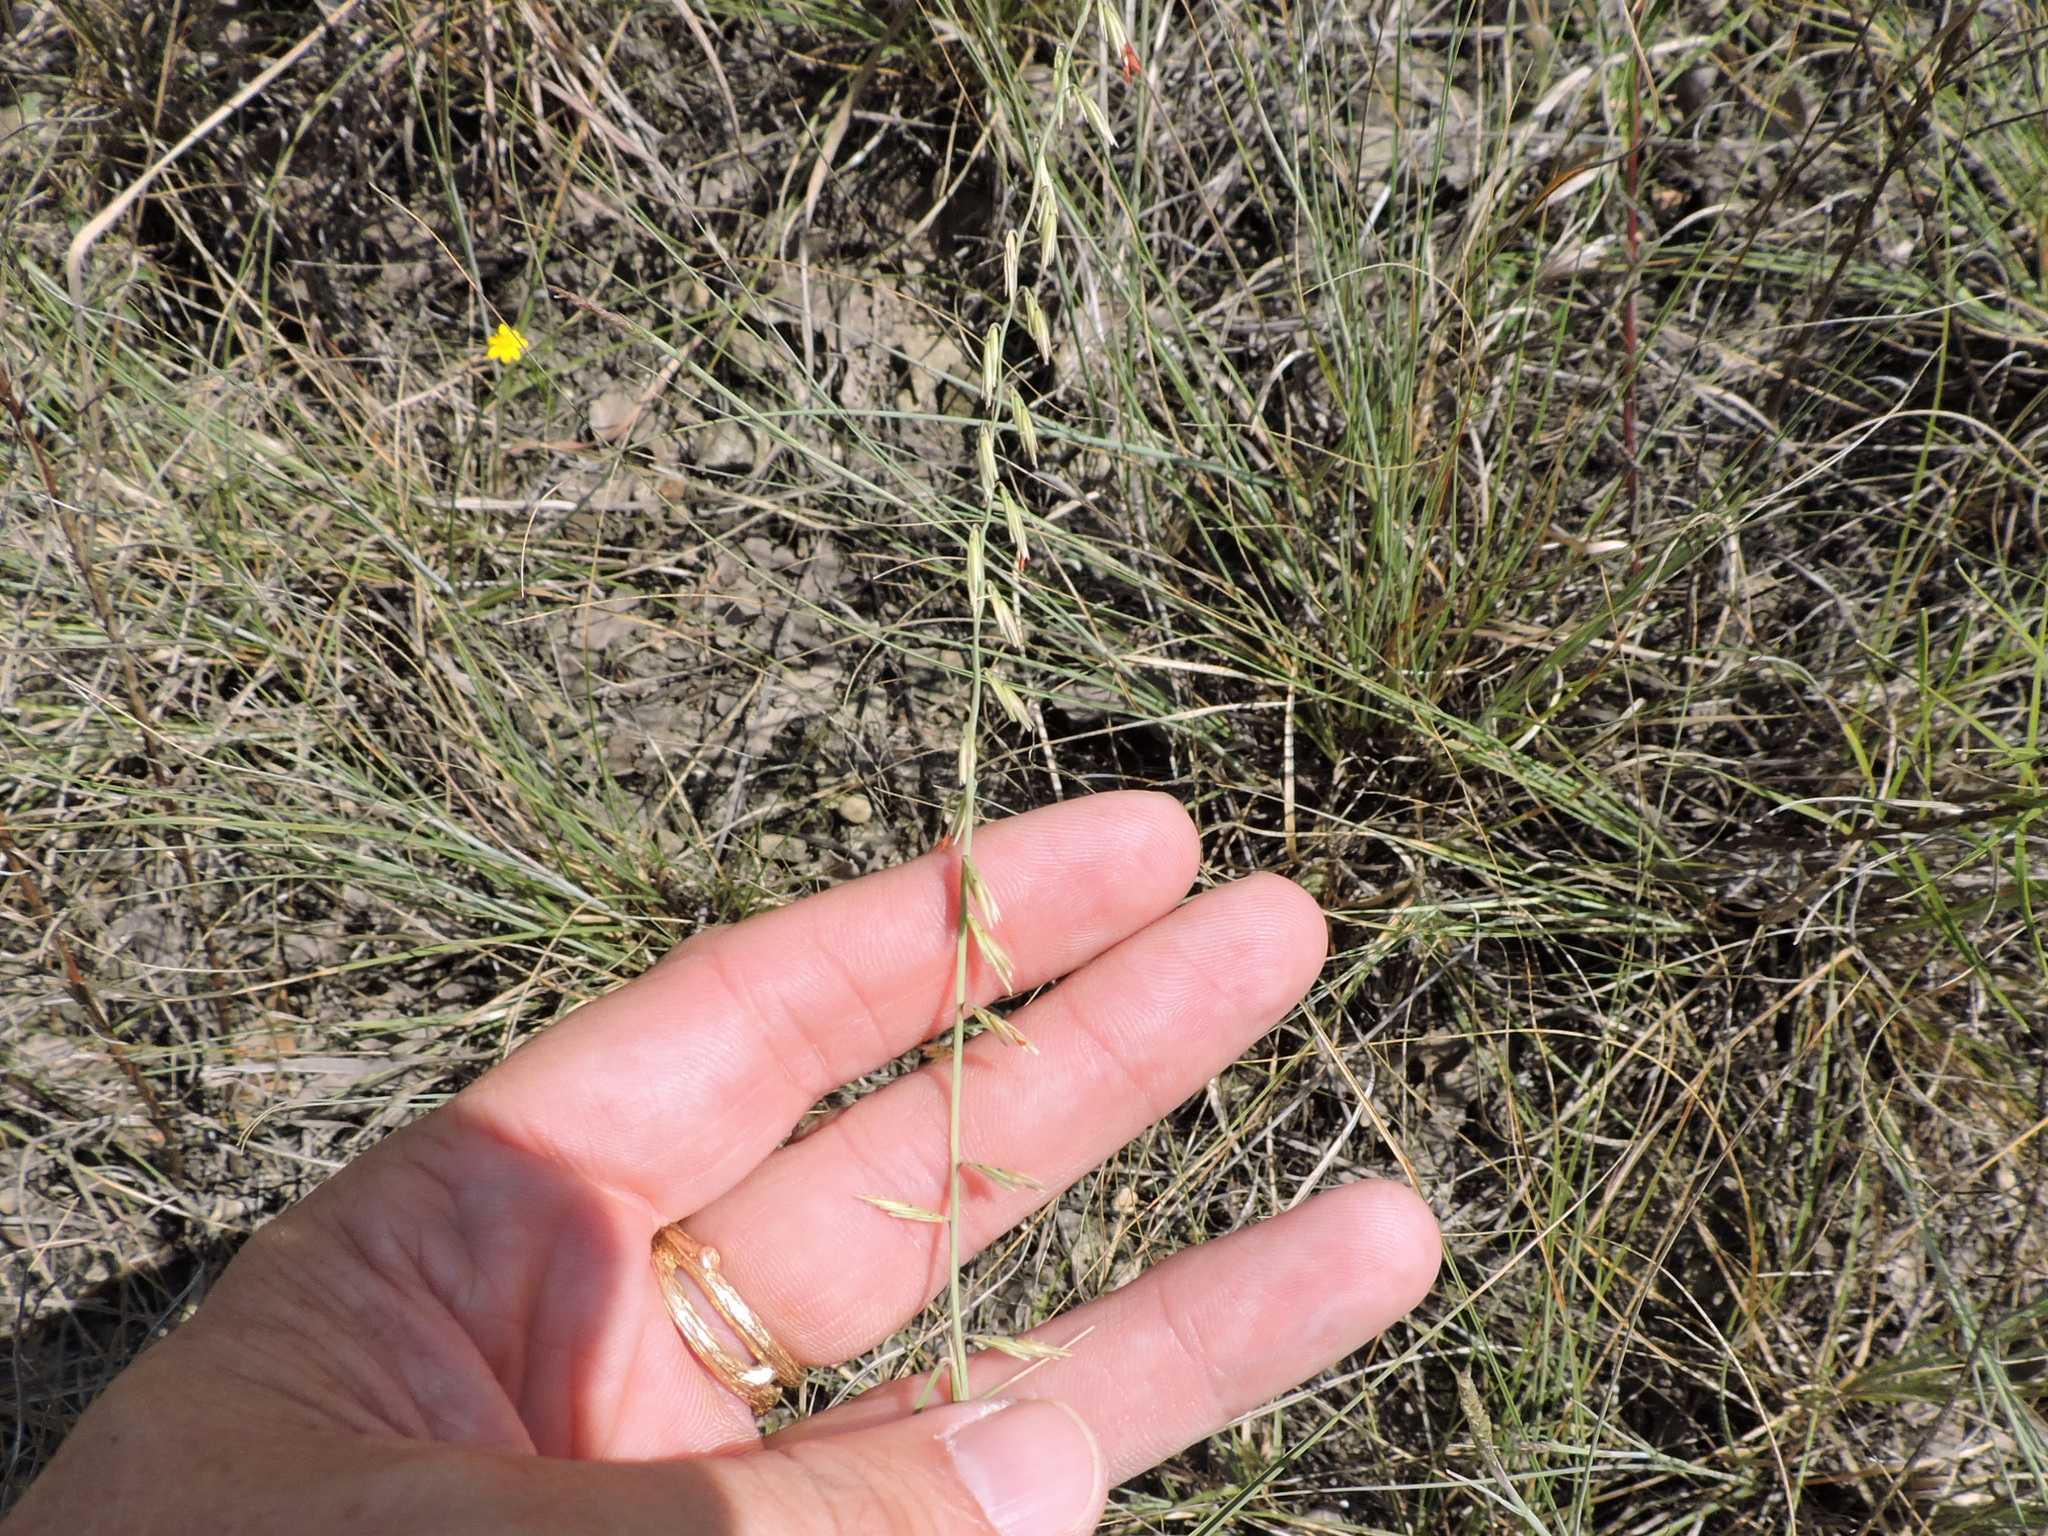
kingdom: Plantae
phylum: Tracheophyta
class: Liliopsida
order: Poales
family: Poaceae
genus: Bouteloua
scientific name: Bouteloua curtipendula
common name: Side-oats grama
